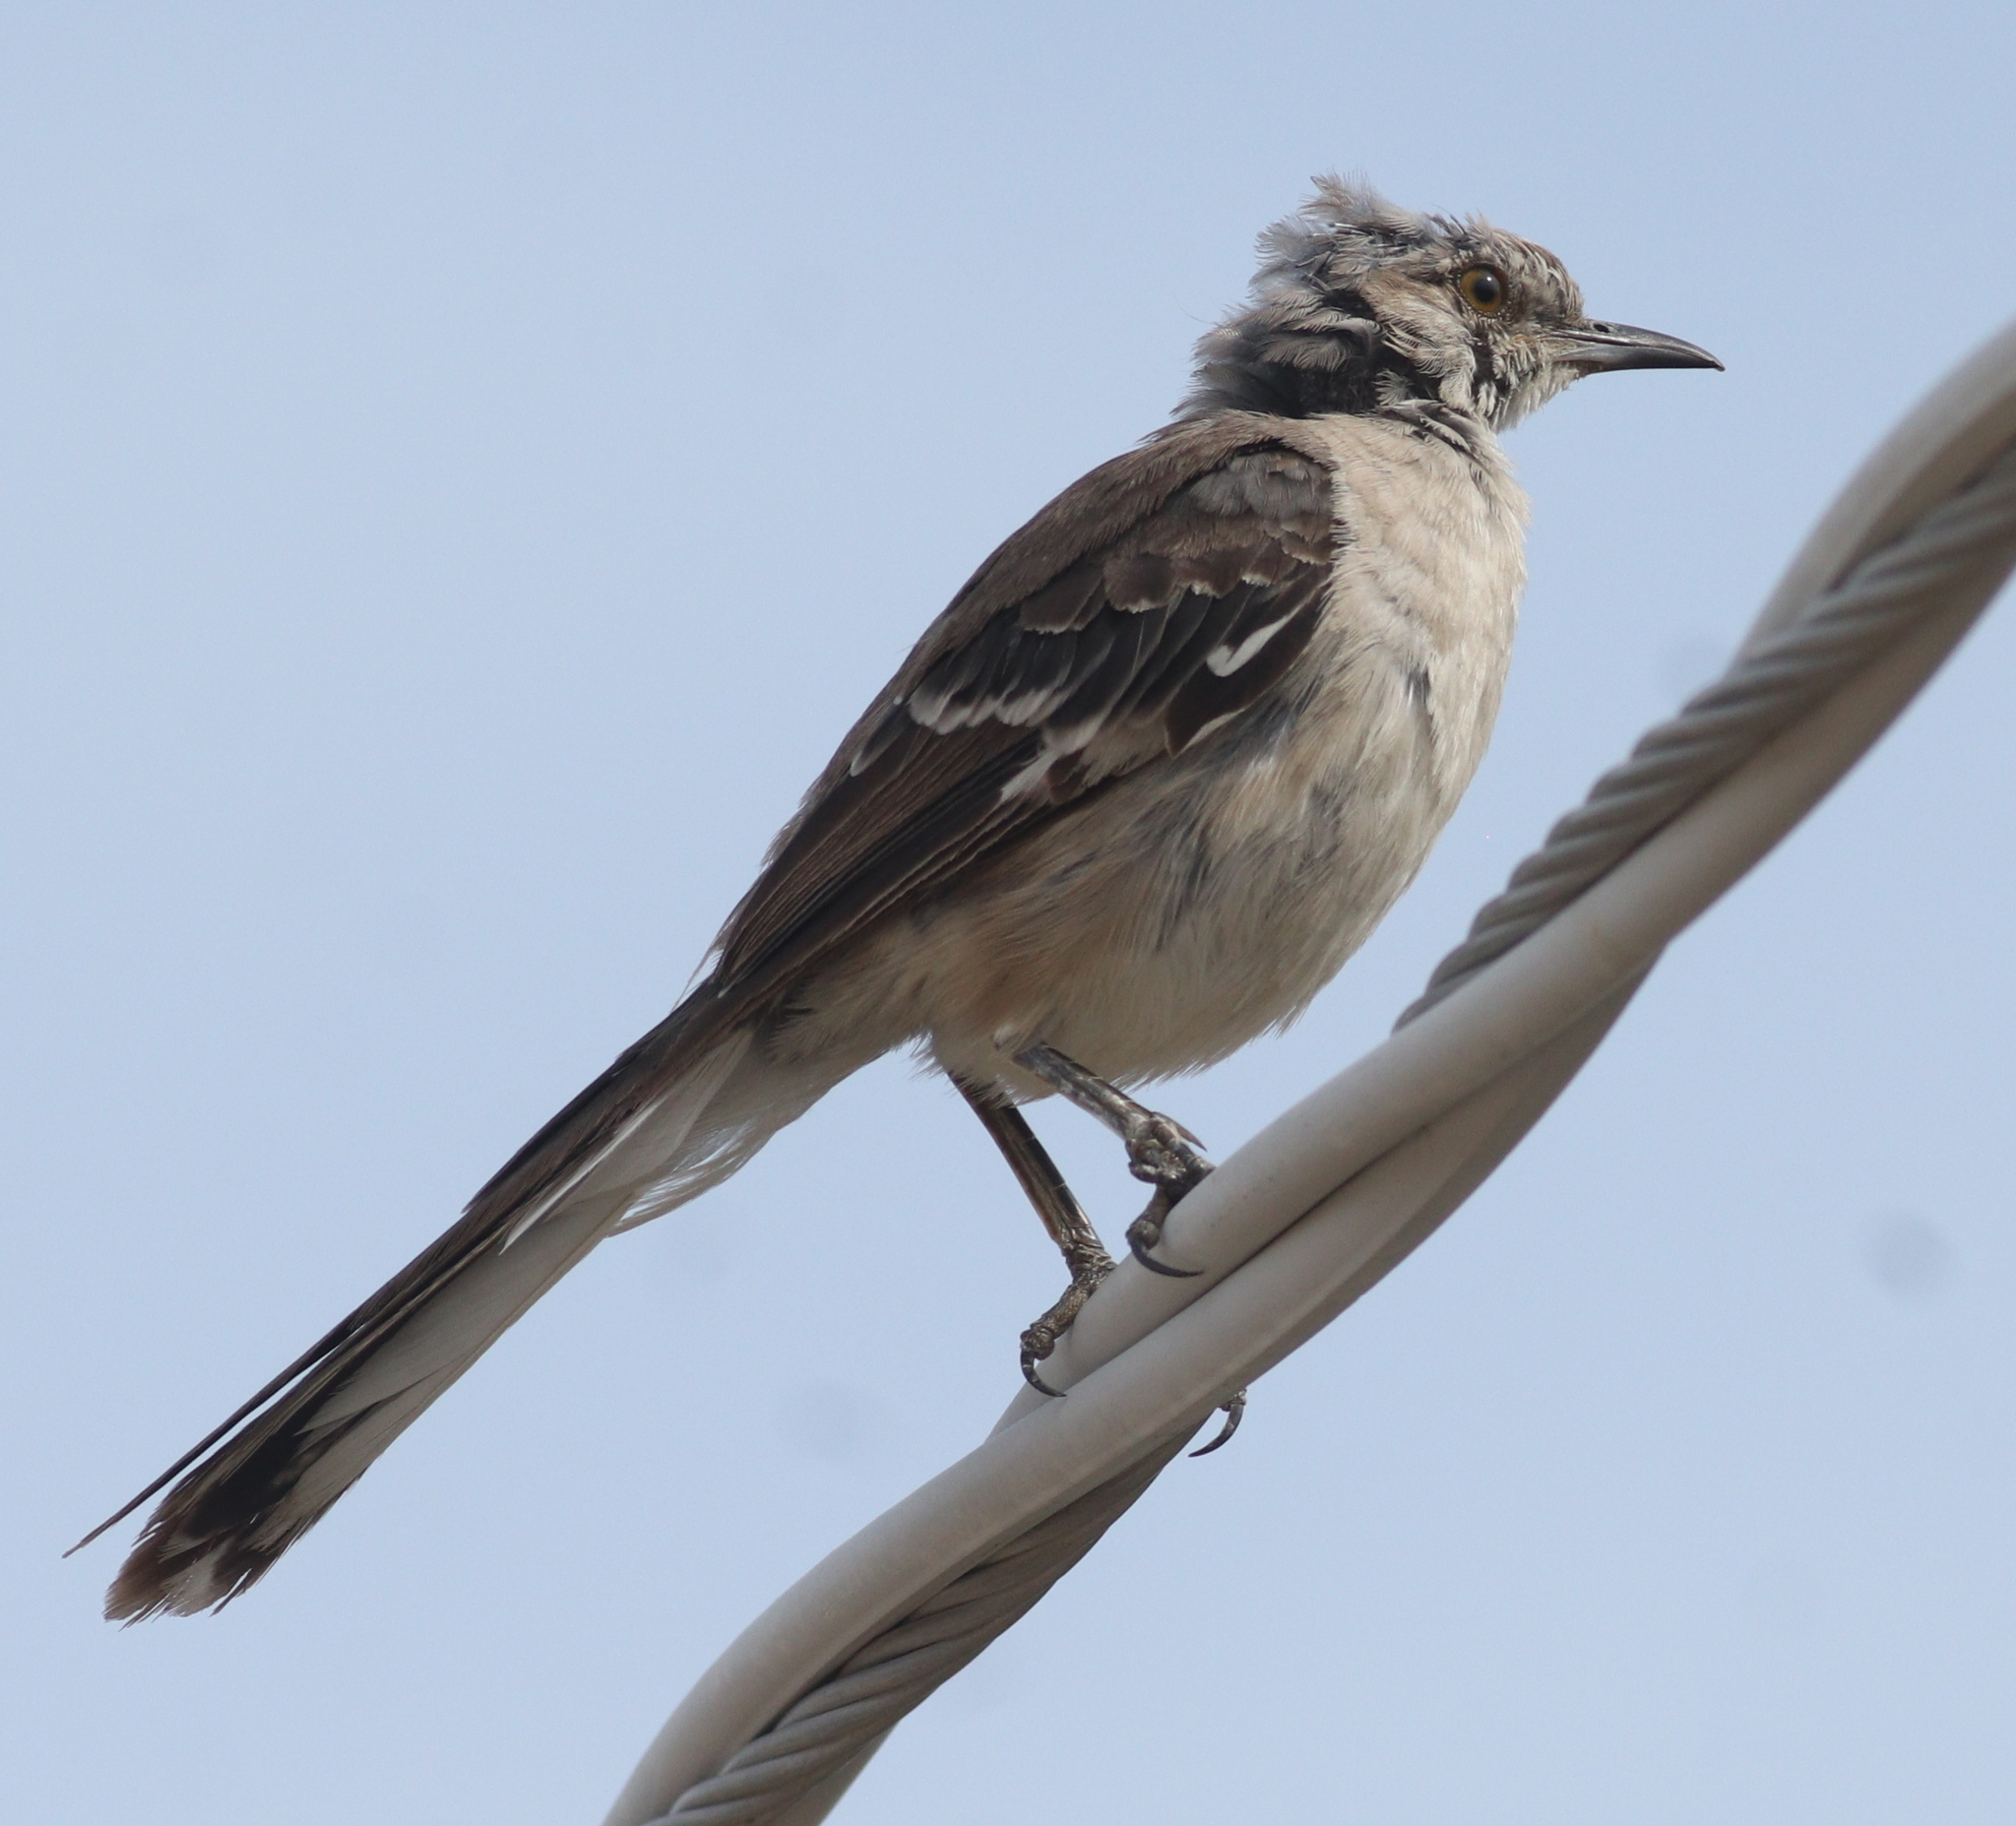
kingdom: Animalia
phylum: Chordata
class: Aves
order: Passeriformes
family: Mimidae
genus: Mimus
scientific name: Mimus polyglottos
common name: Northern mockingbird
